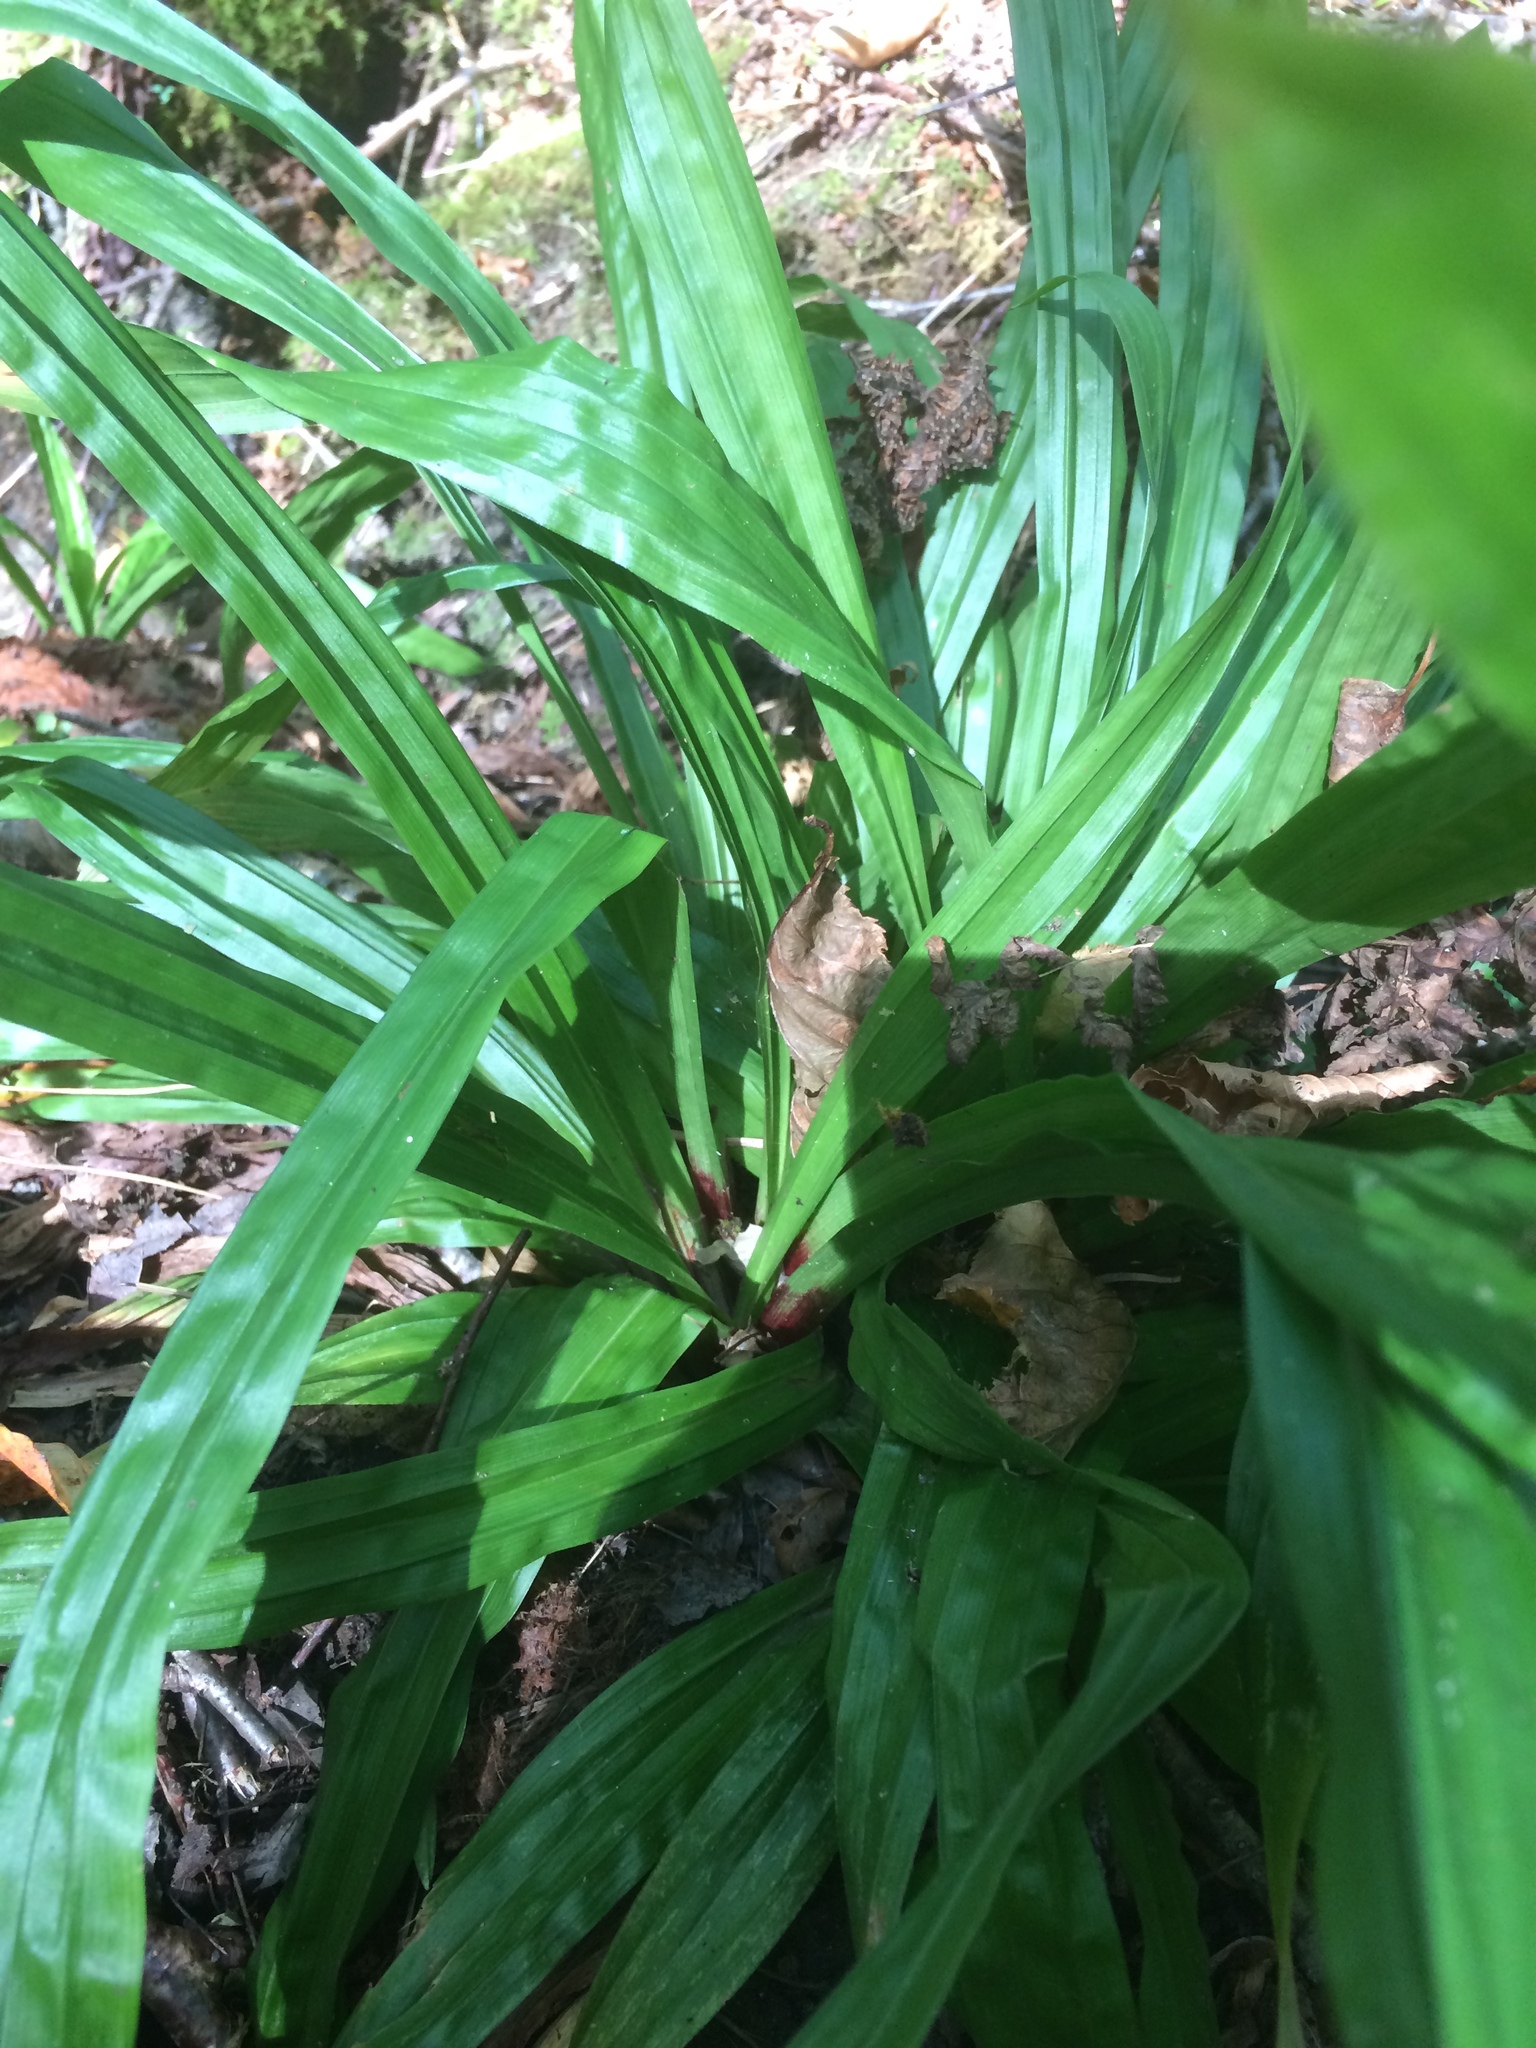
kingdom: Plantae
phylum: Tracheophyta
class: Liliopsida
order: Poales
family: Cyperaceae
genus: Carex
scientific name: Carex plantaginea
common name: Plantain-leaved sedge
